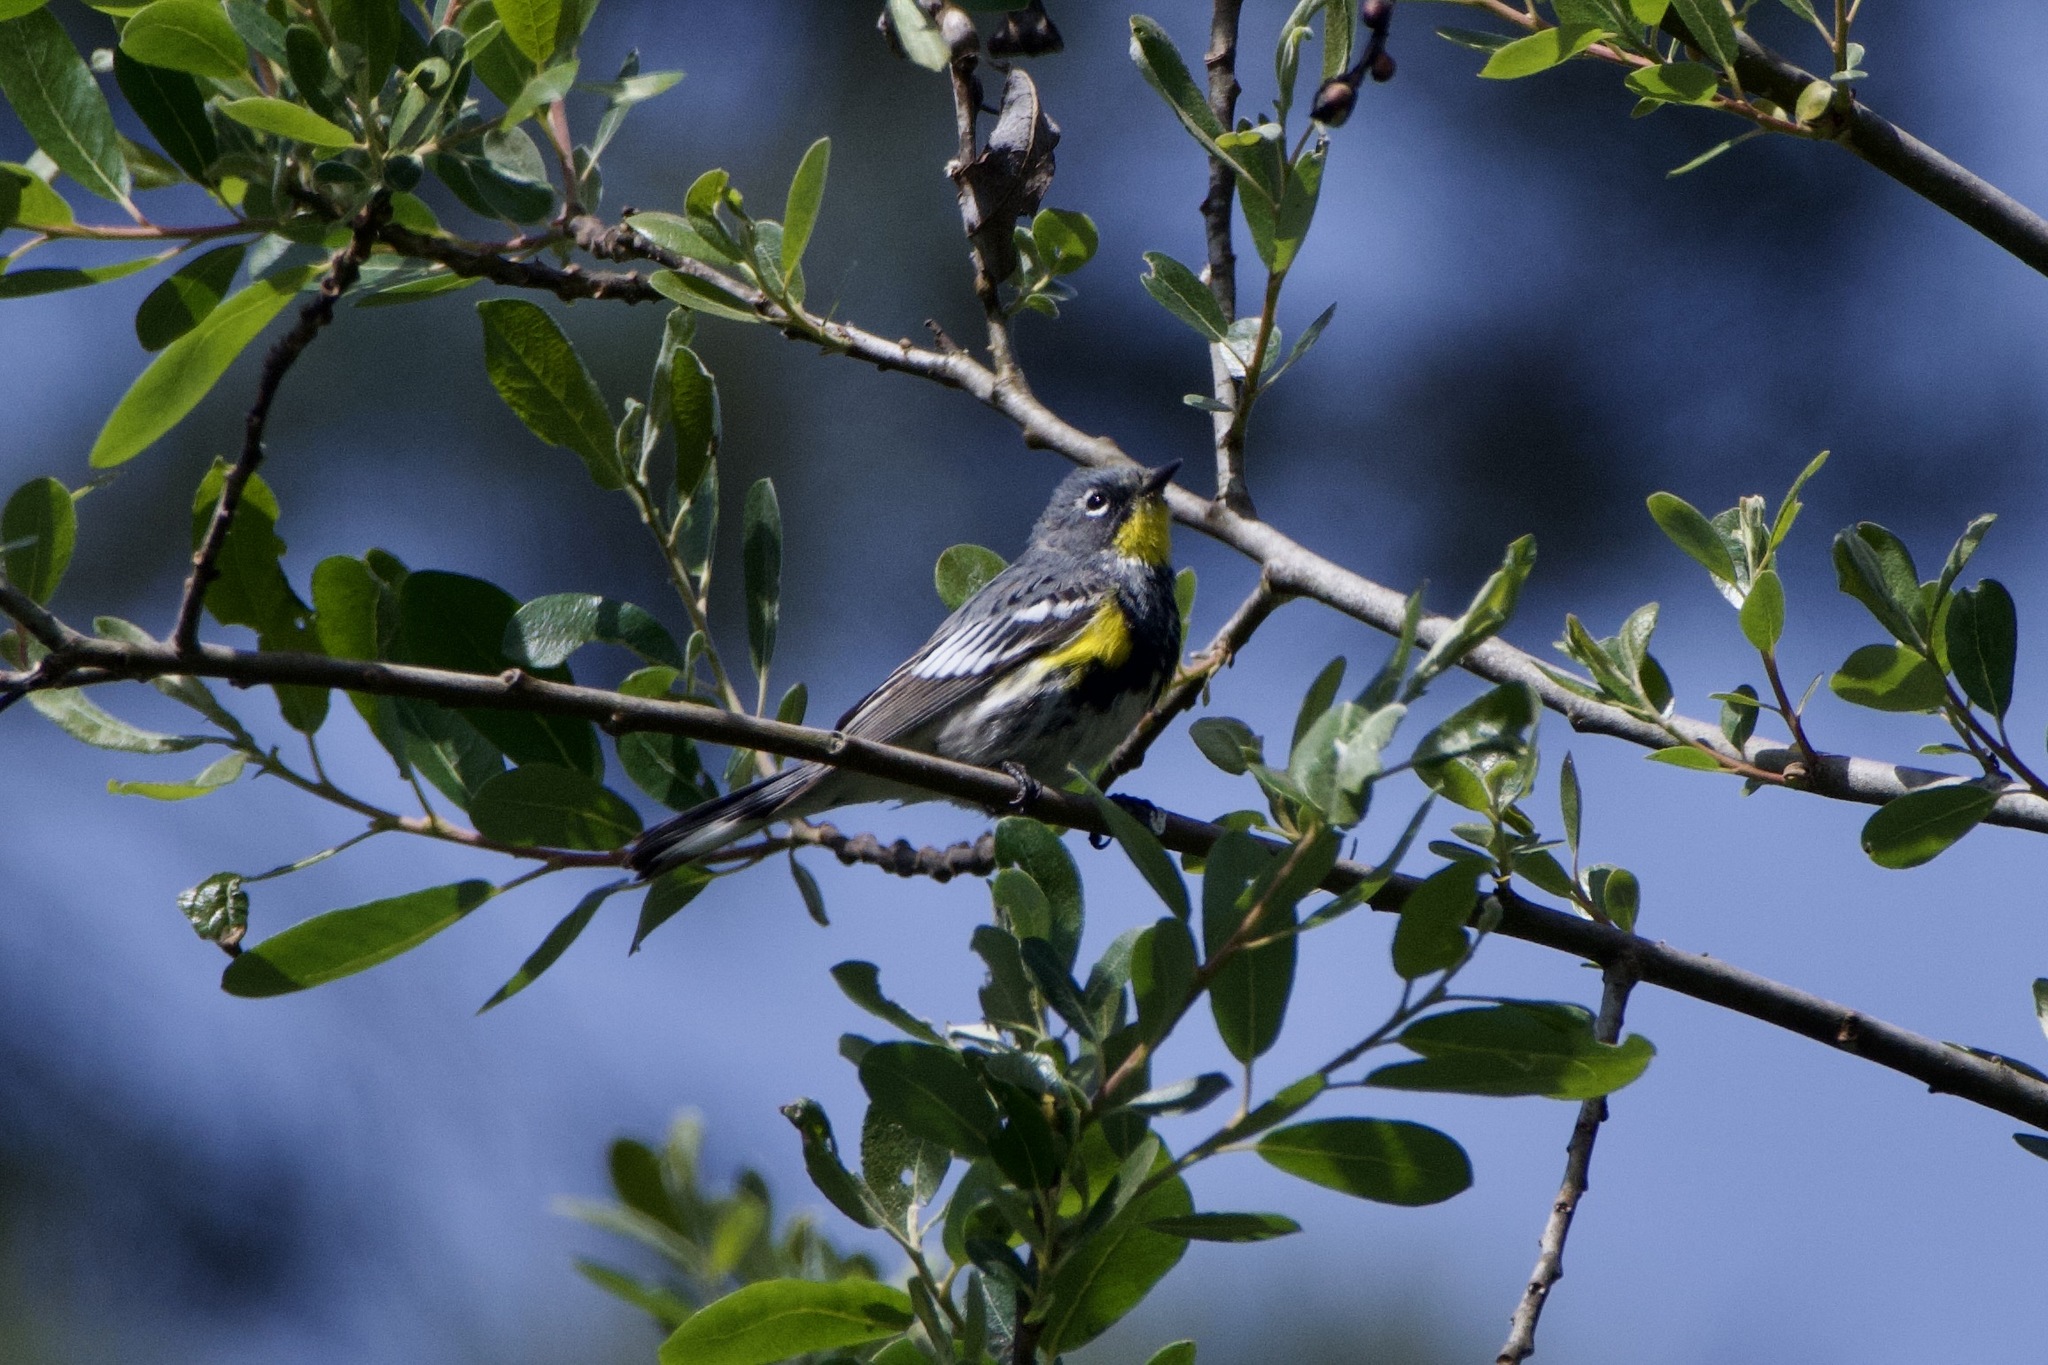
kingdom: Animalia
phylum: Chordata
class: Aves
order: Passeriformes
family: Parulidae
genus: Setophaga
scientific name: Setophaga auduboni
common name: Audubon's warbler
